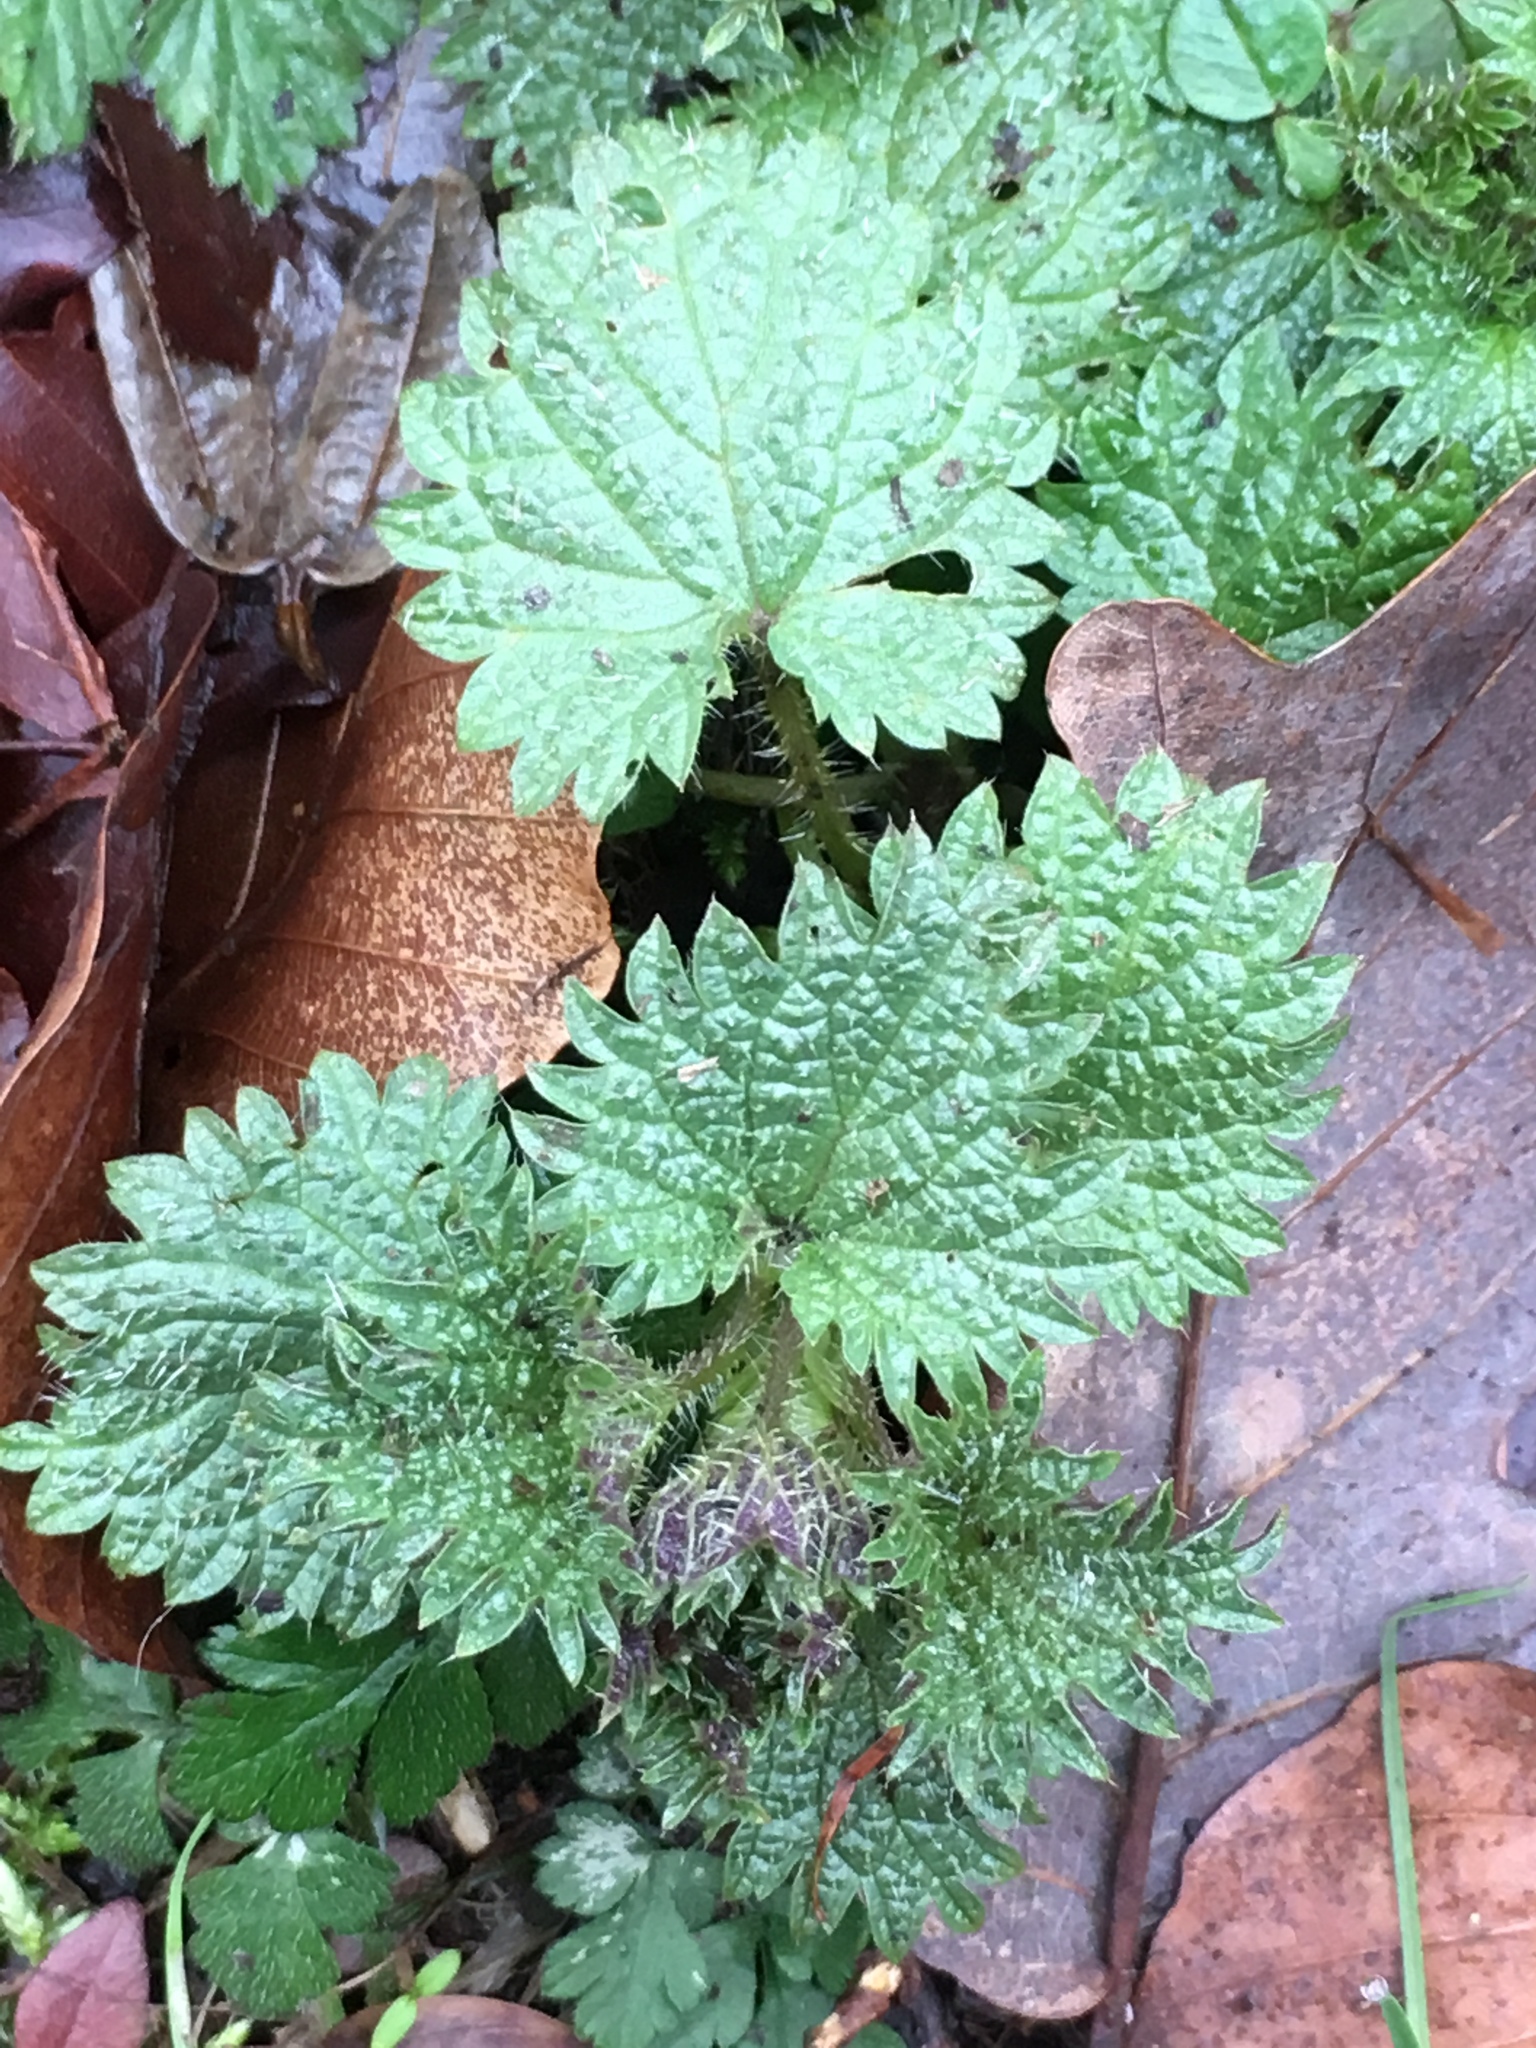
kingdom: Plantae
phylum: Tracheophyta
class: Magnoliopsida
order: Rosales
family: Urticaceae
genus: Urtica
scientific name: Urtica dioica
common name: Common nettle
